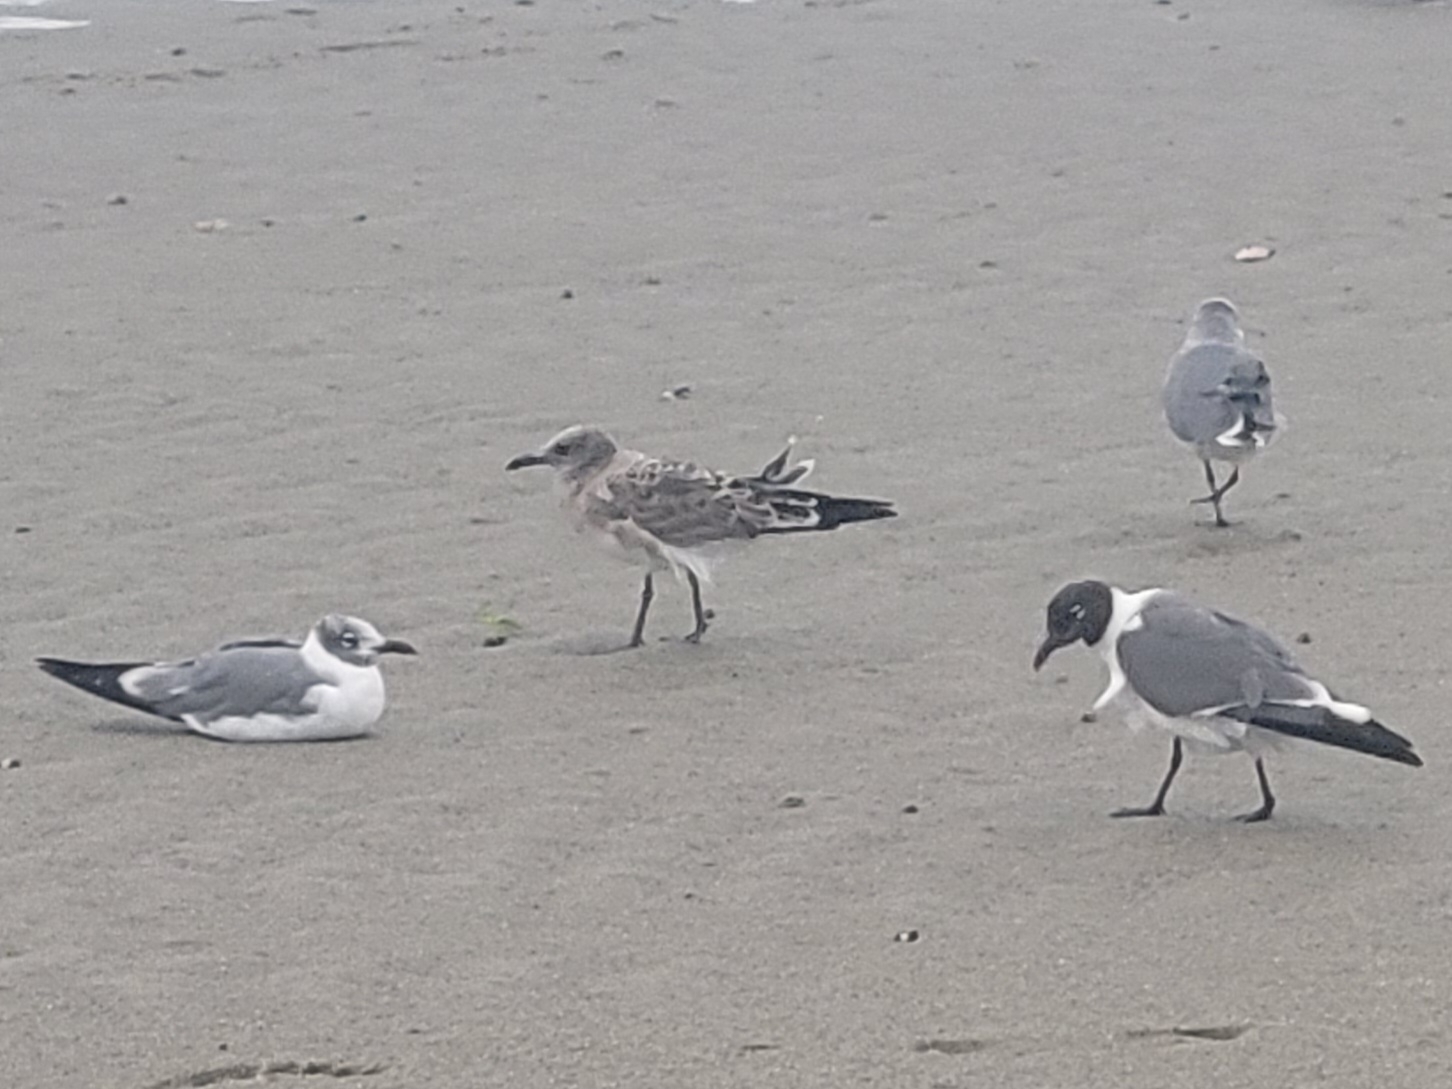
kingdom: Animalia
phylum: Chordata
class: Aves
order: Charadriiformes
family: Laridae
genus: Leucophaeus
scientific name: Leucophaeus atricilla
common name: Laughing gull
